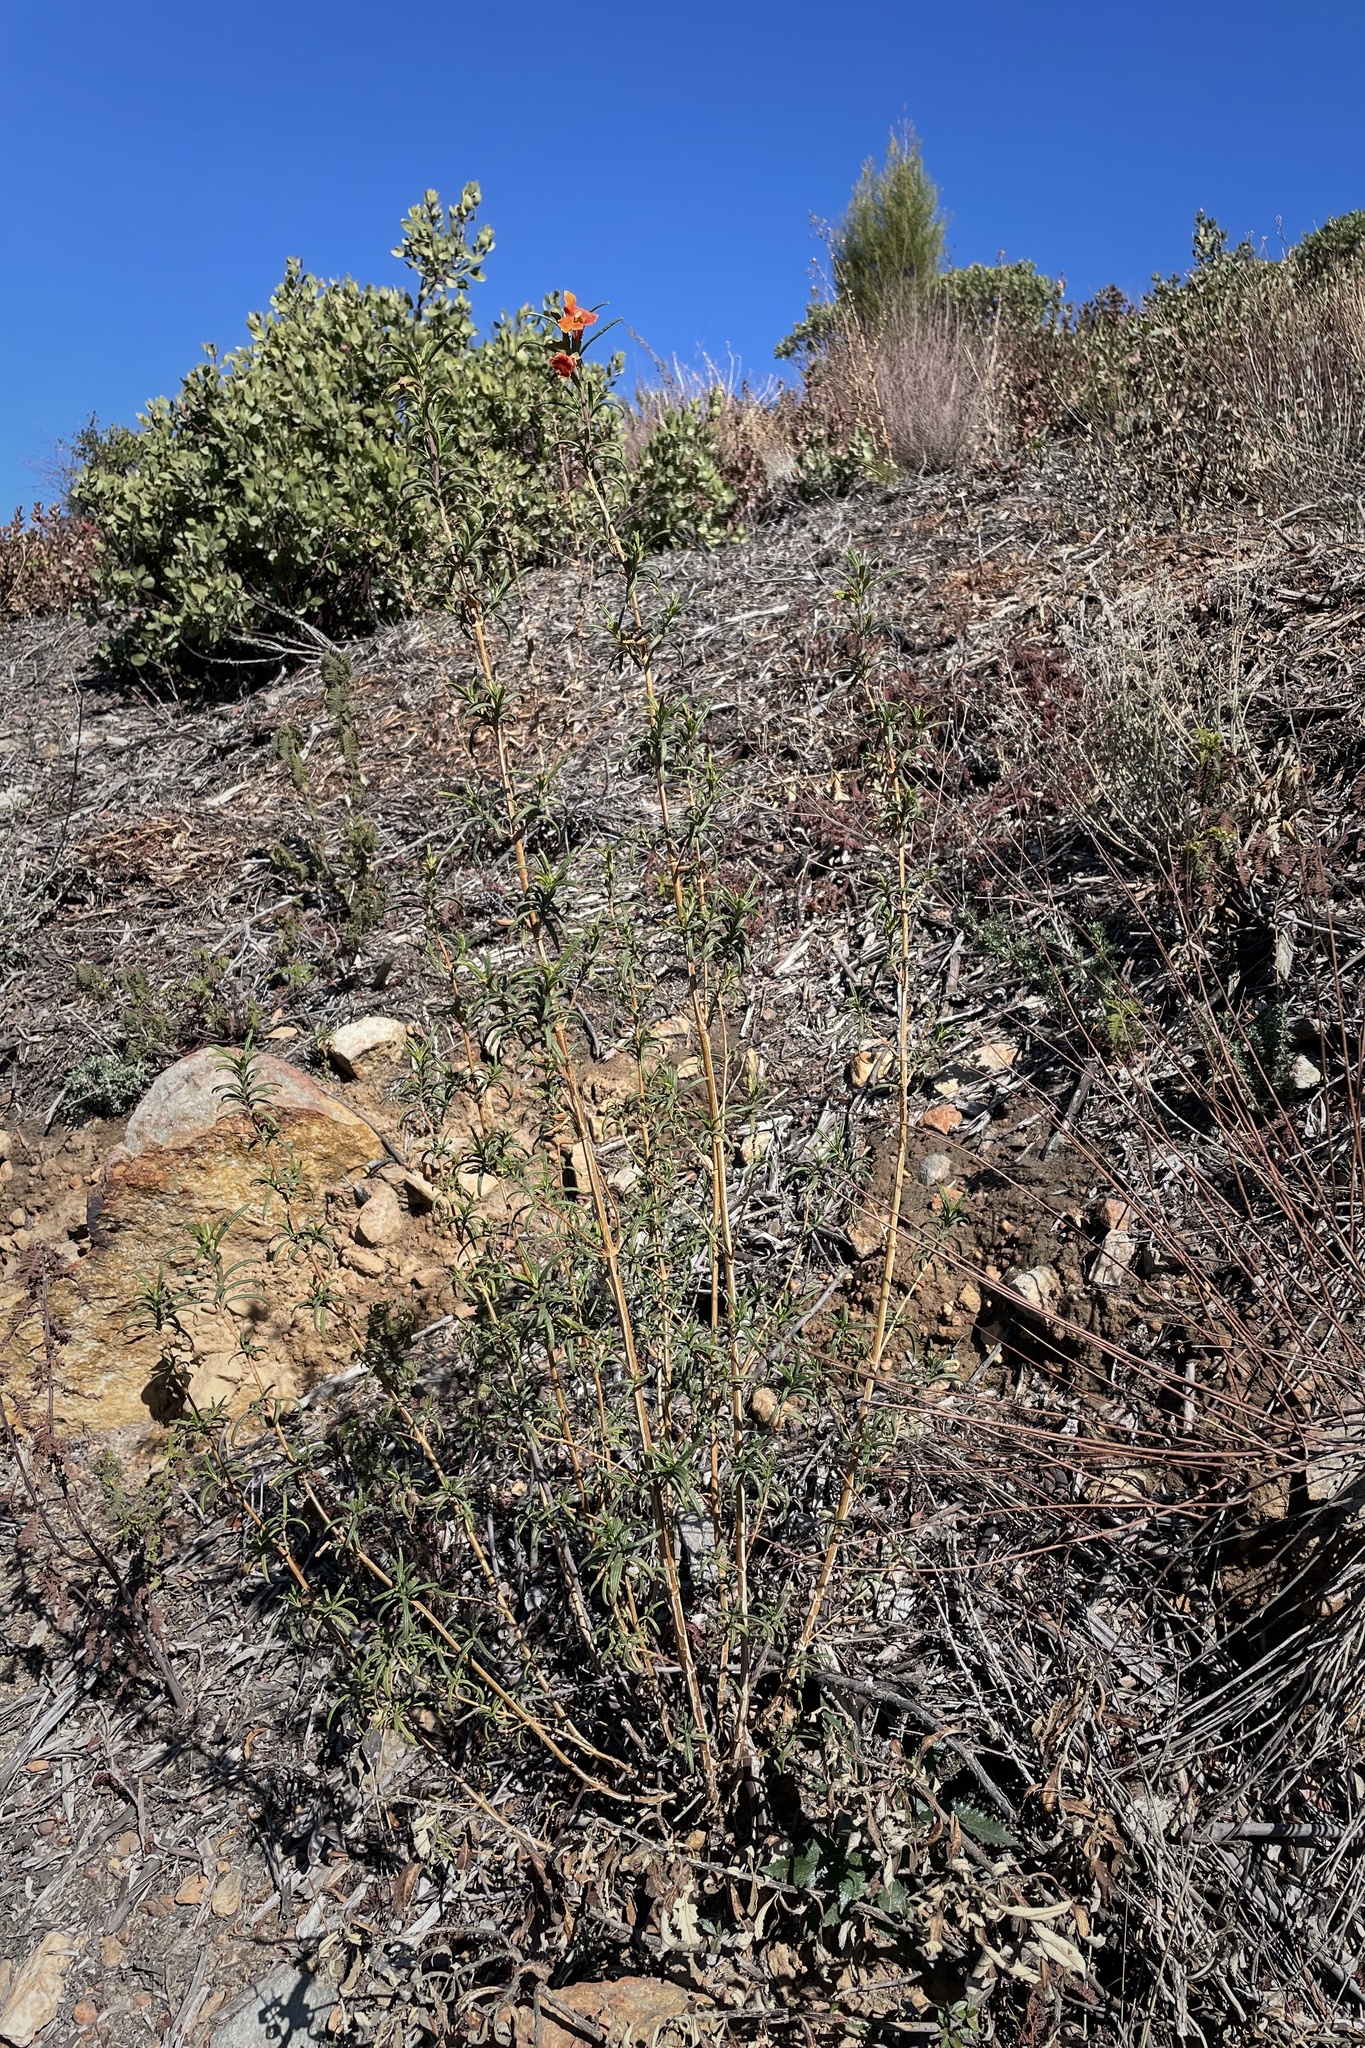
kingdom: Plantae
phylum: Tracheophyta
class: Magnoliopsida
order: Lamiales
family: Phrymaceae
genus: Diplacus
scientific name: Diplacus puniceus
